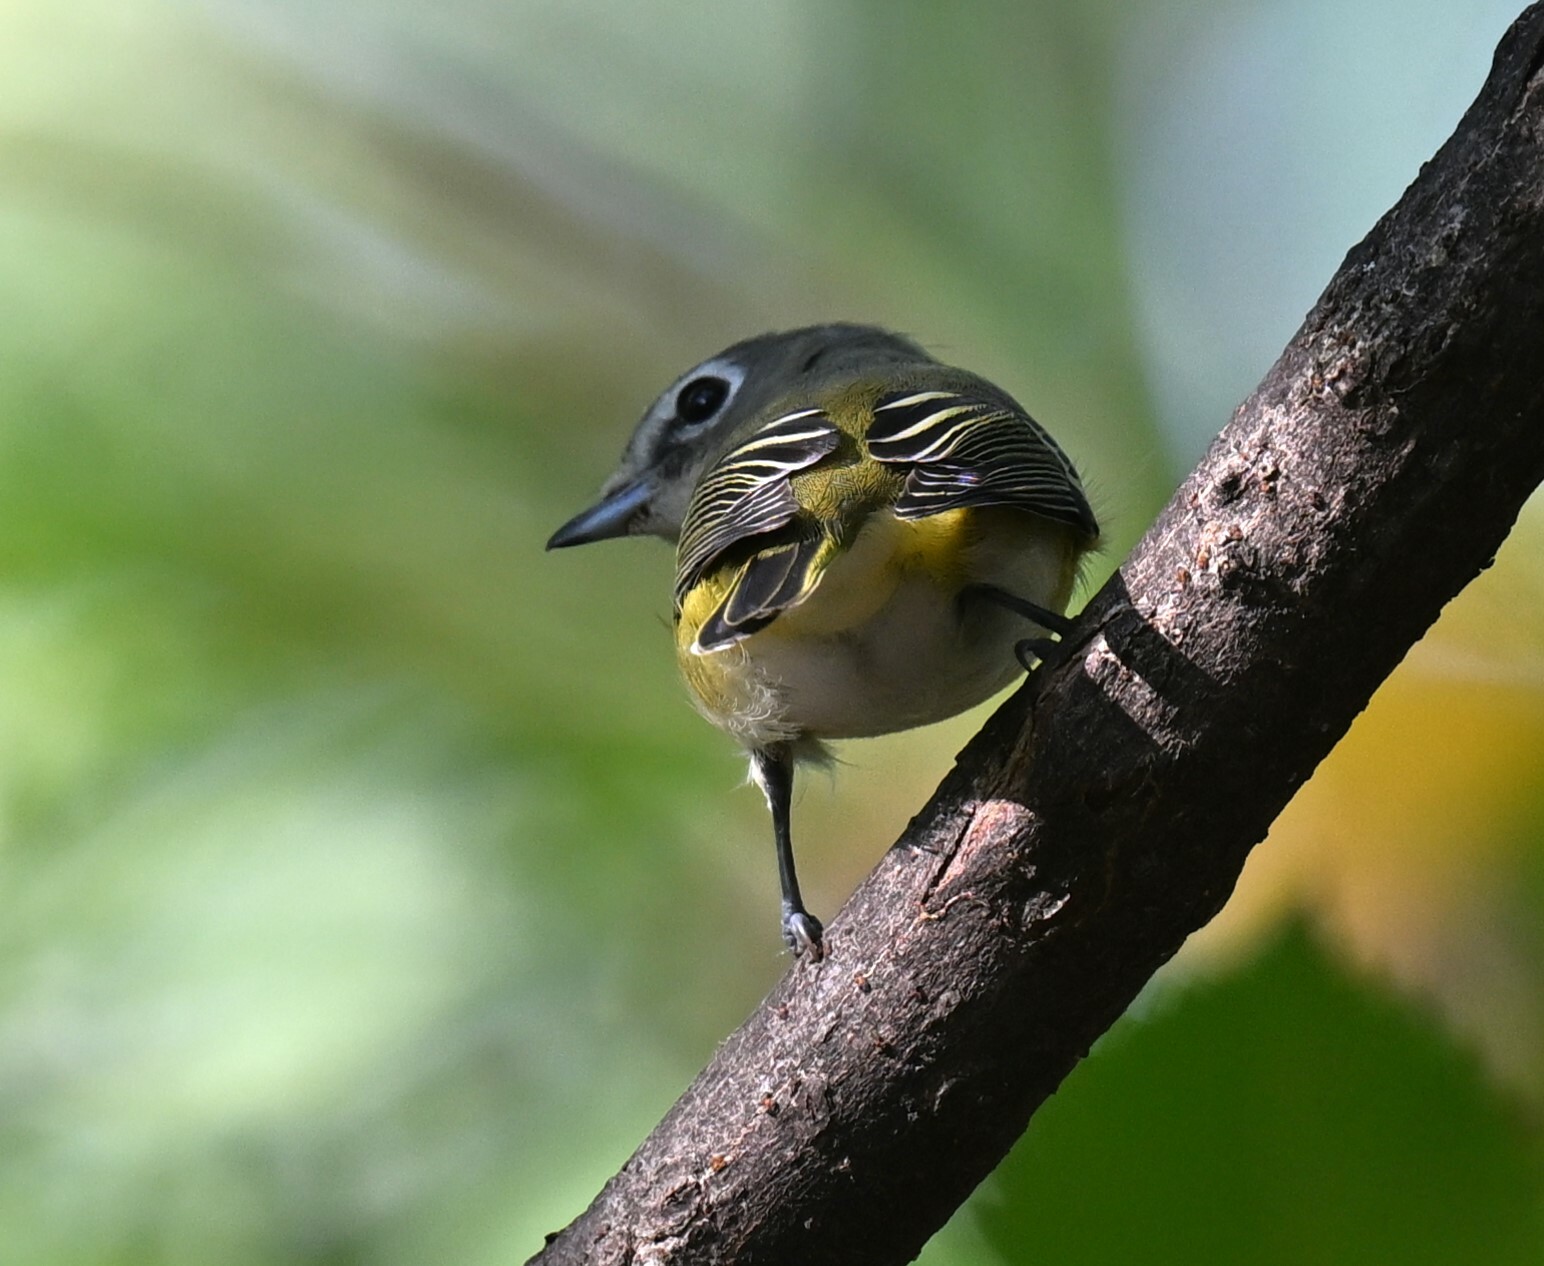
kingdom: Animalia
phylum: Chordata
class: Aves
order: Passeriformes
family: Vireonidae
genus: Vireo
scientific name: Vireo solitarius
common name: Blue-headed vireo
